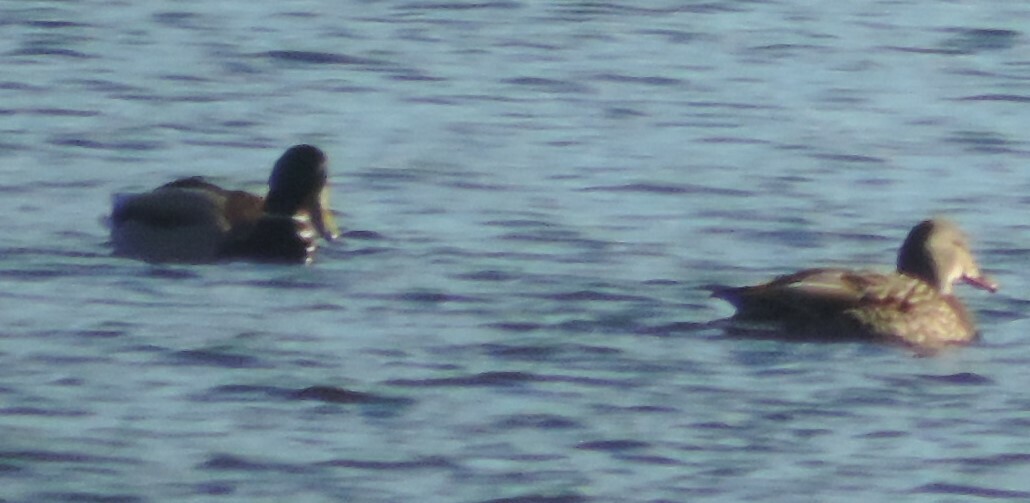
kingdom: Animalia
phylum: Chordata
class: Aves
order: Anseriformes
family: Anatidae
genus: Anas
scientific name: Anas platyrhynchos
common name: Mallard
